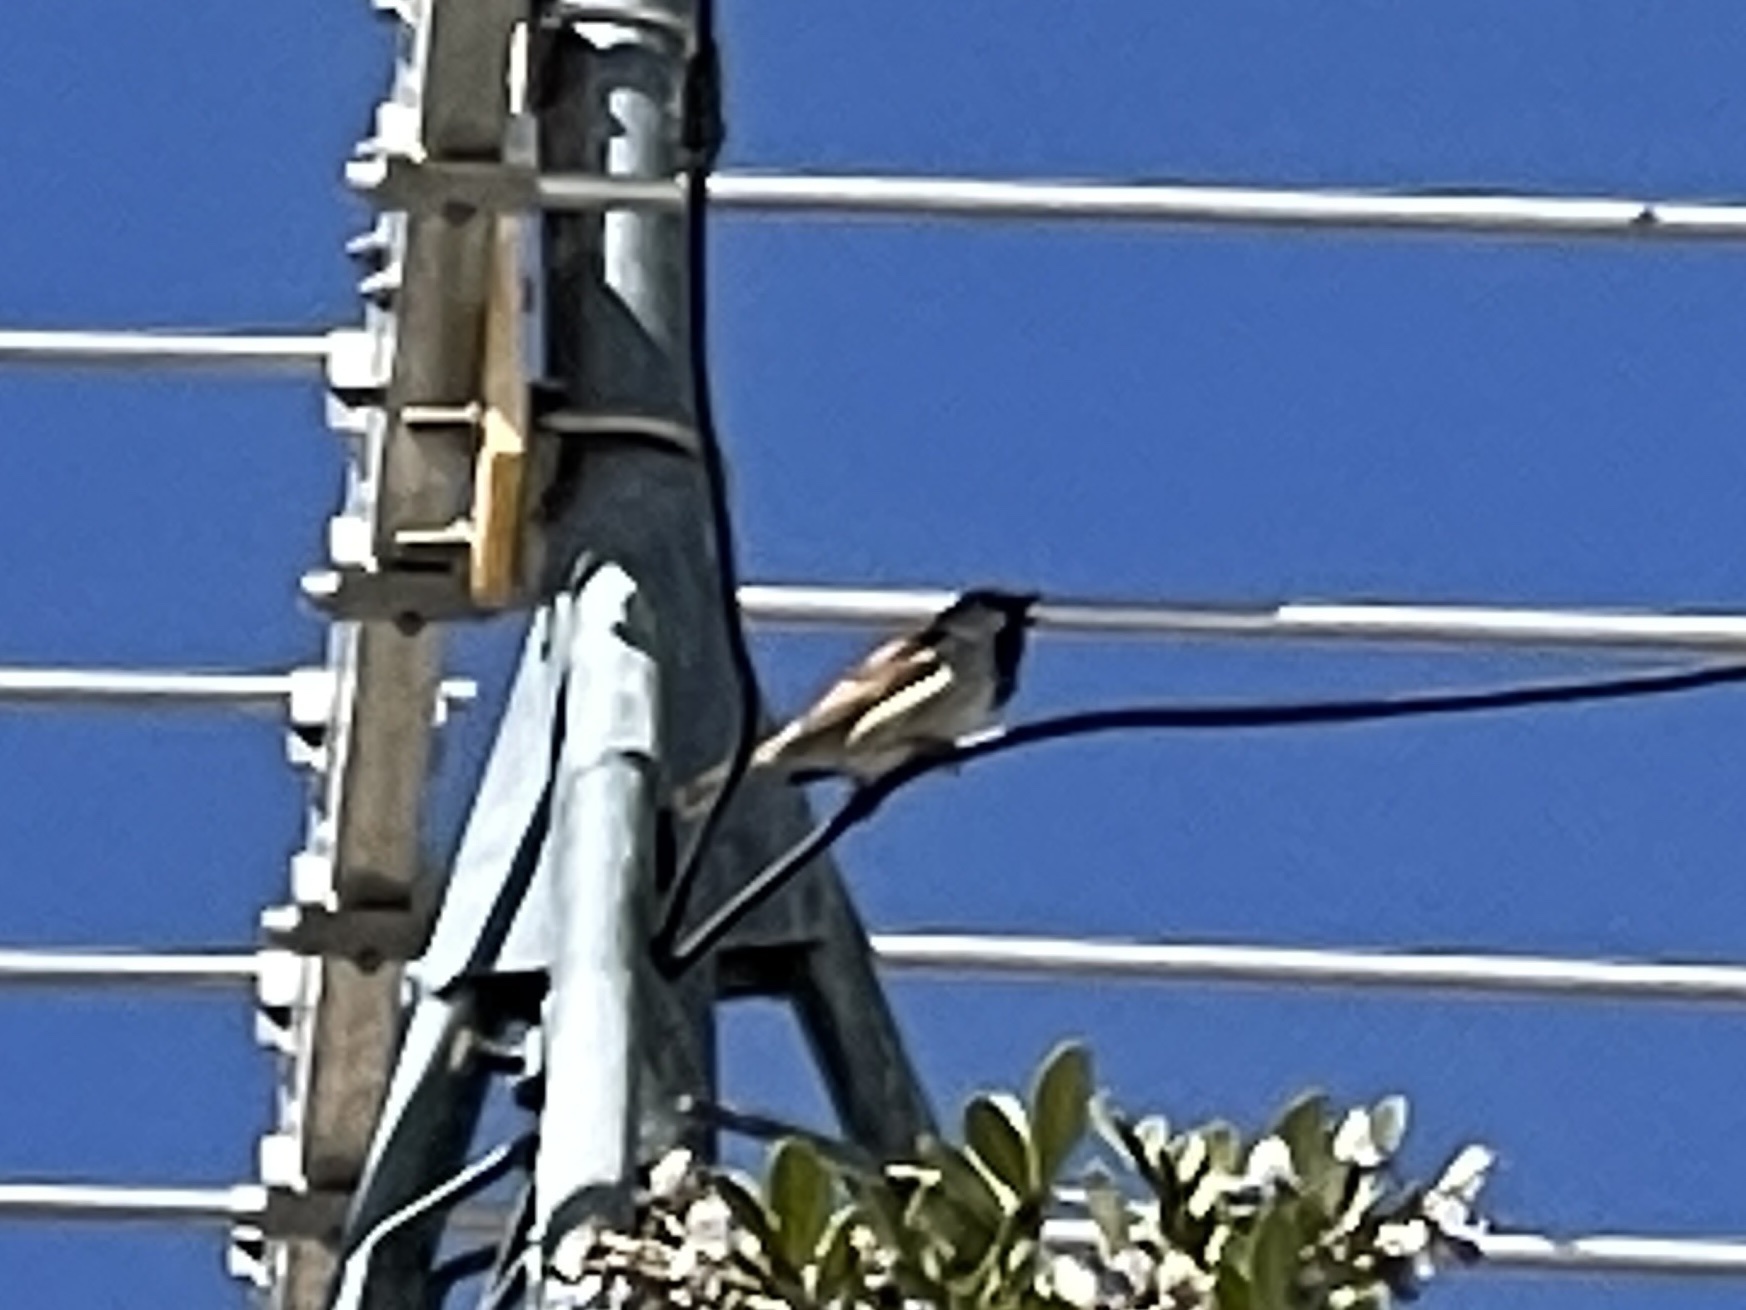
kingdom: Animalia
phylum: Chordata
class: Aves
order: Passeriformes
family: Passeridae
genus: Passer
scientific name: Passer domesticus
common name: House sparrow
